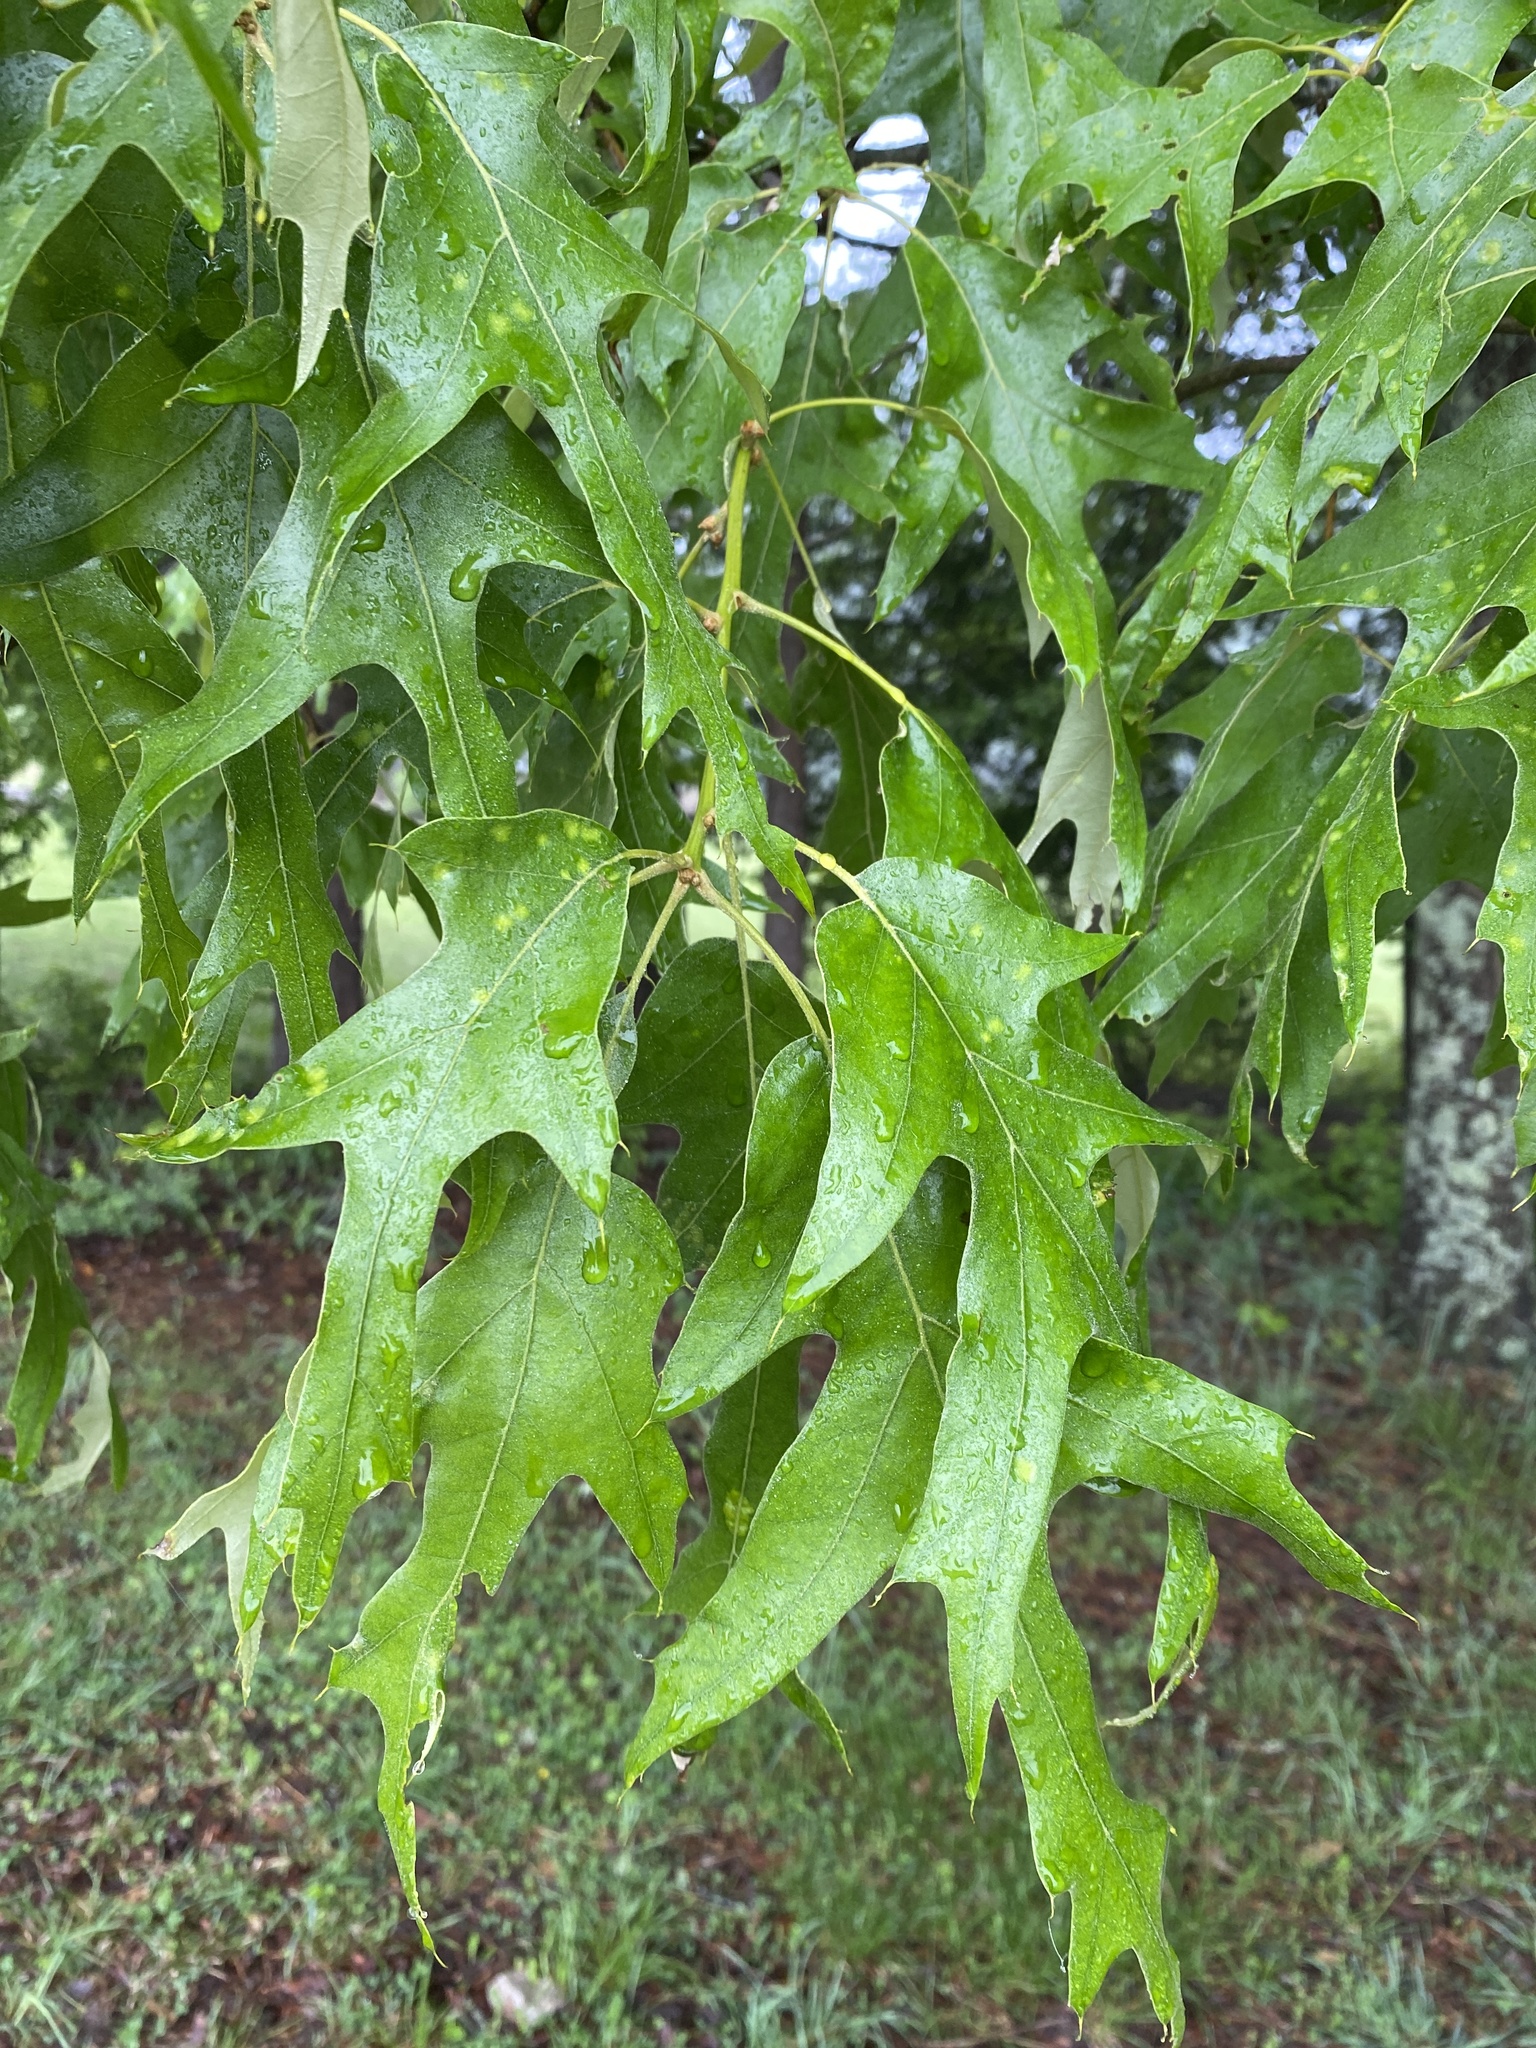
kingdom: Plantae
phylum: Tracheophyta
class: Magnoliopsida
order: Fagales
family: Fagaceae
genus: Quercus
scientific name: Quercus falcata
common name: Southern red oak
